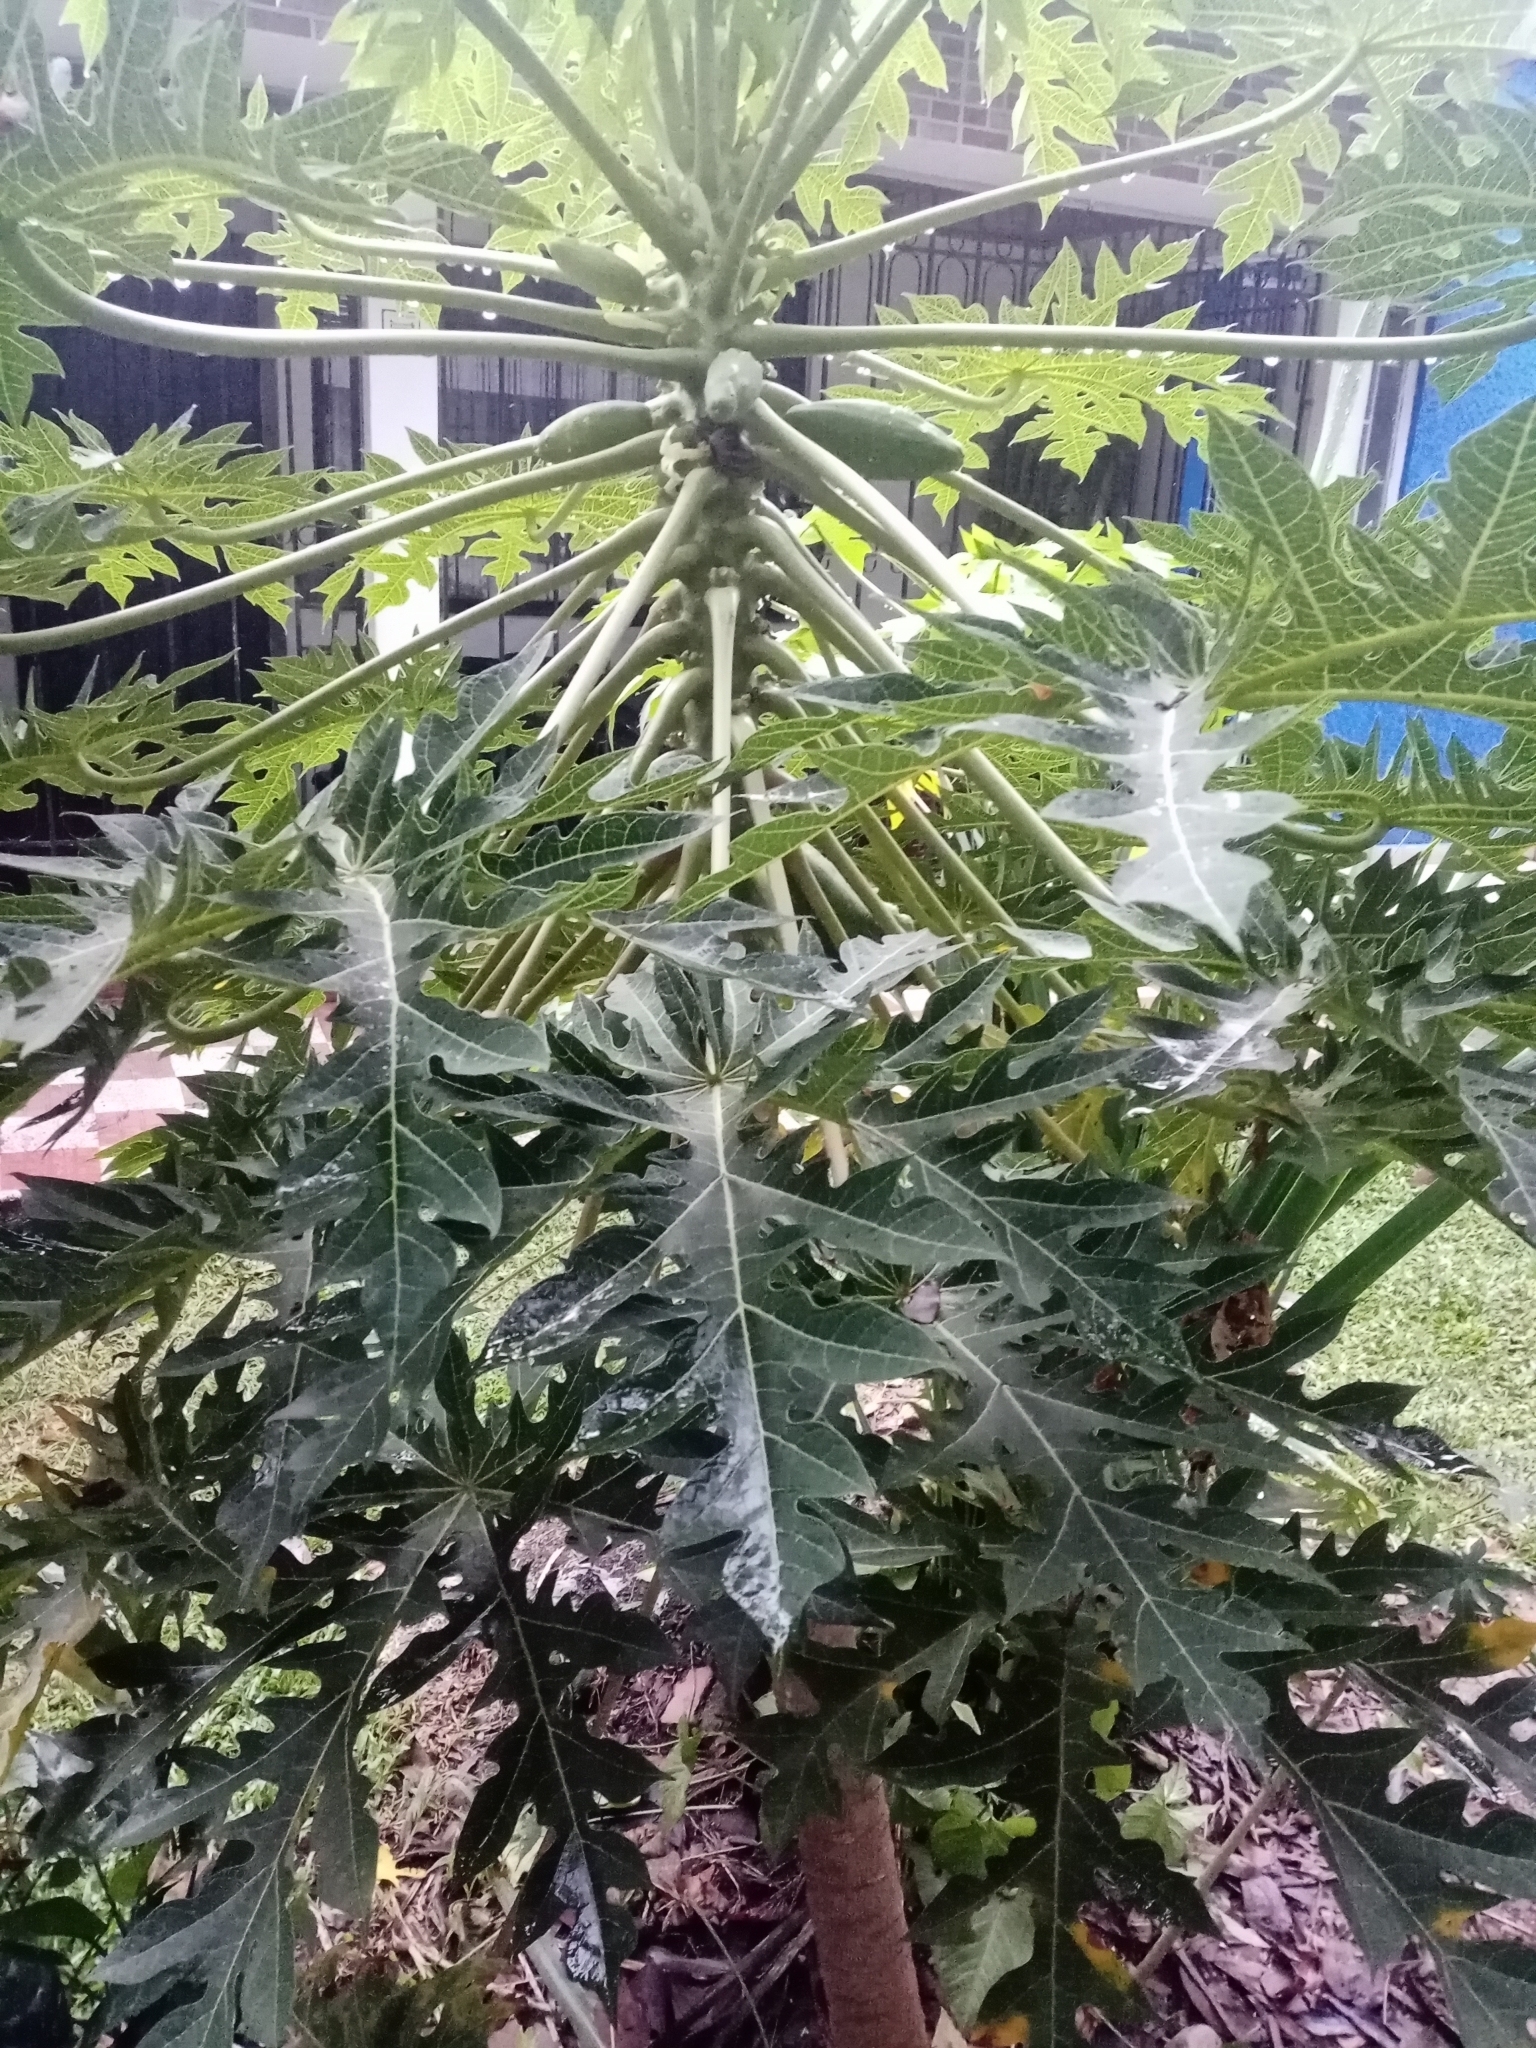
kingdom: Plantae
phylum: Tracheophyta
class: Magnoliopsida
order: Brassicales
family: Caricaceae
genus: Carica
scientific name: Carica papaya
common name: Papaya
